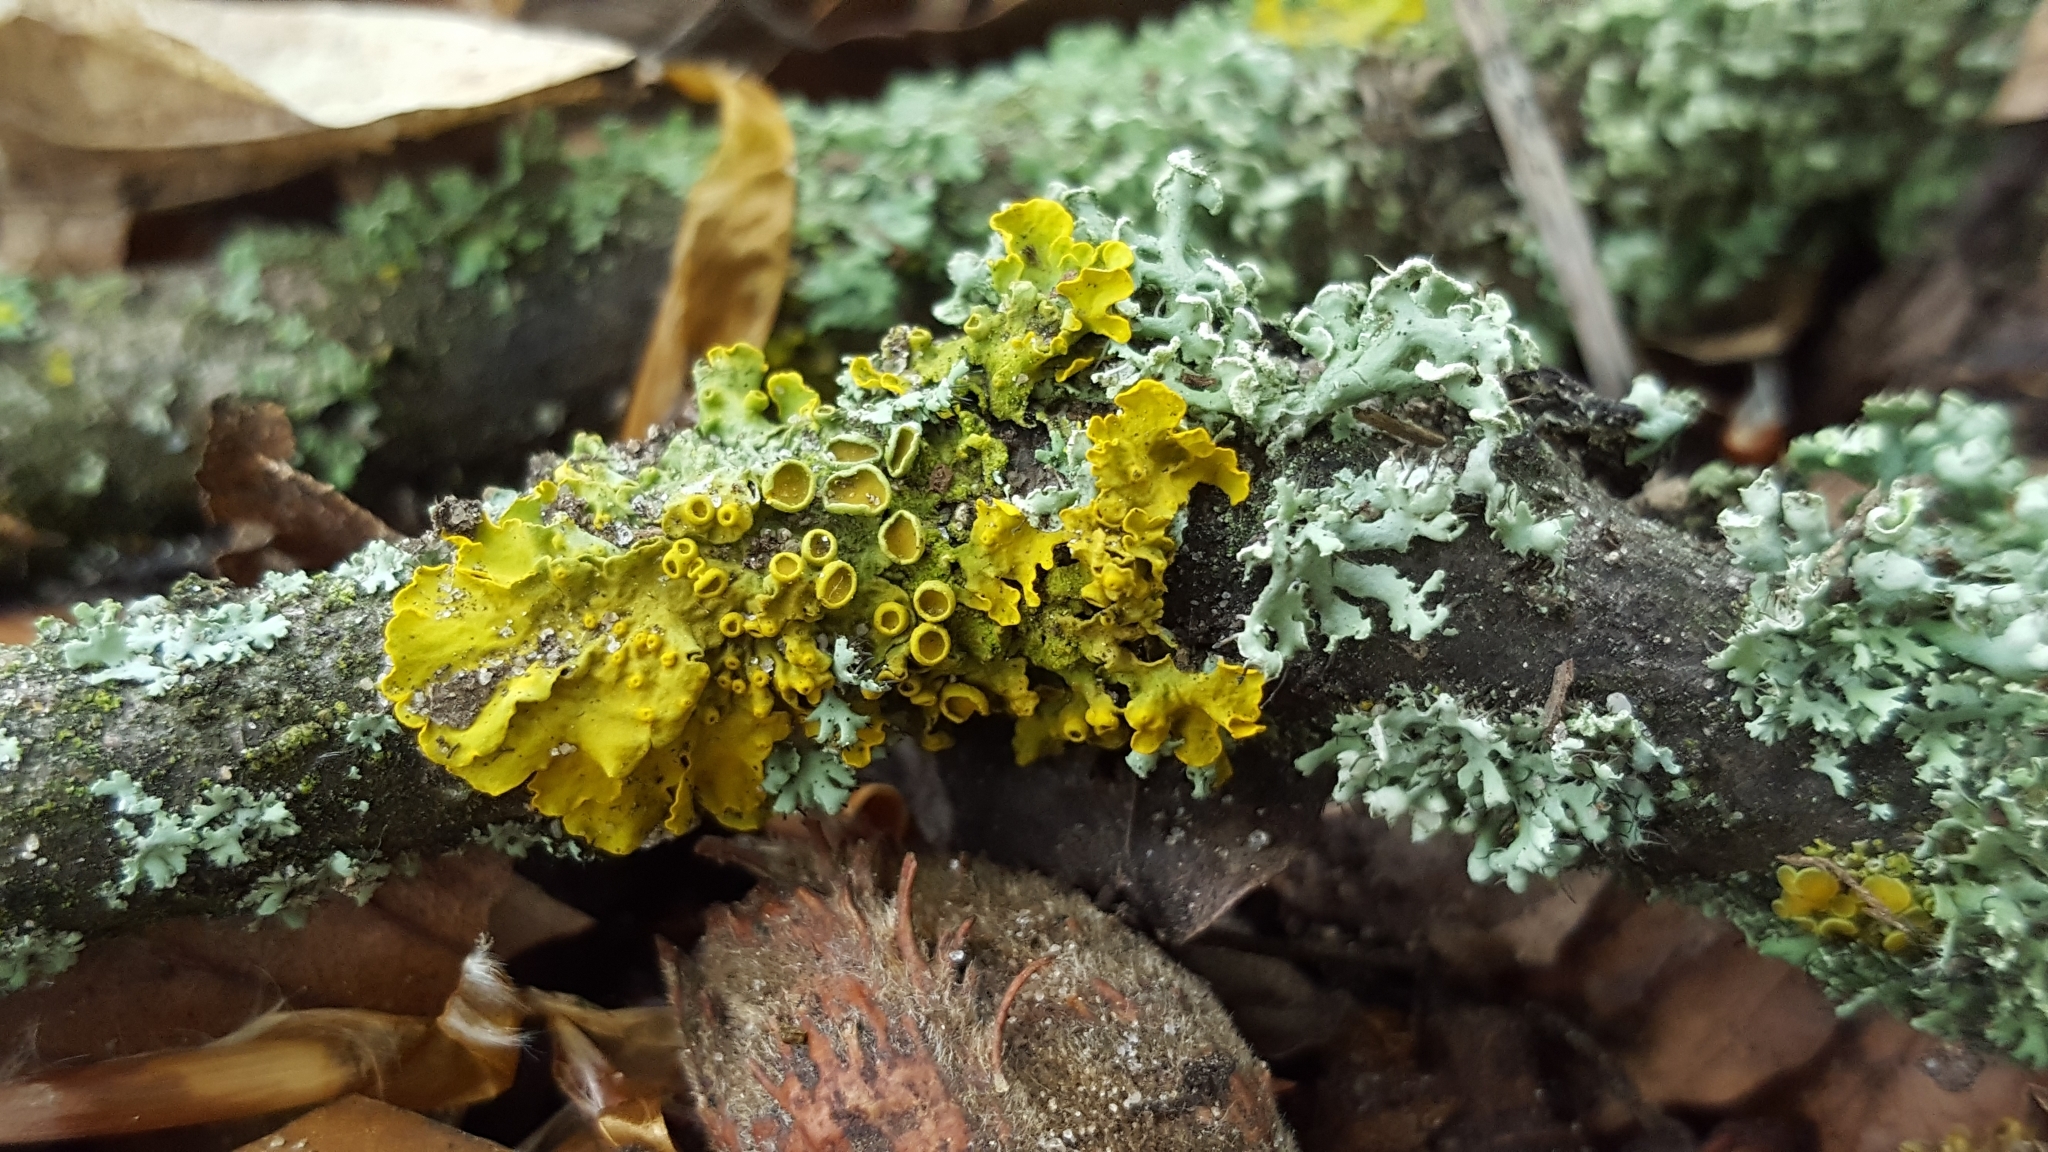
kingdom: Fungi
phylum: Ascomycota
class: Lecanoromycetes
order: Teloschistales
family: Teloschistaceae
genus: Polycauliona
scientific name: Polycauliona polycarpa
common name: Pin-cushion sunburst lichen
